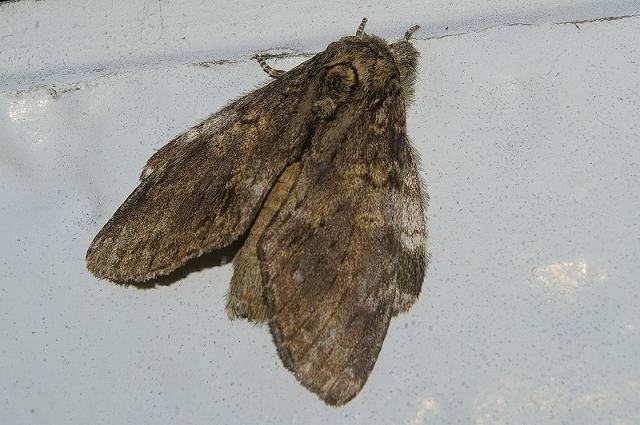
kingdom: Animalia
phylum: Arthropoda
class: Insecta
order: Lepidoptera
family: Notodontidae
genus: Peridea
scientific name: Peridea gigantea
